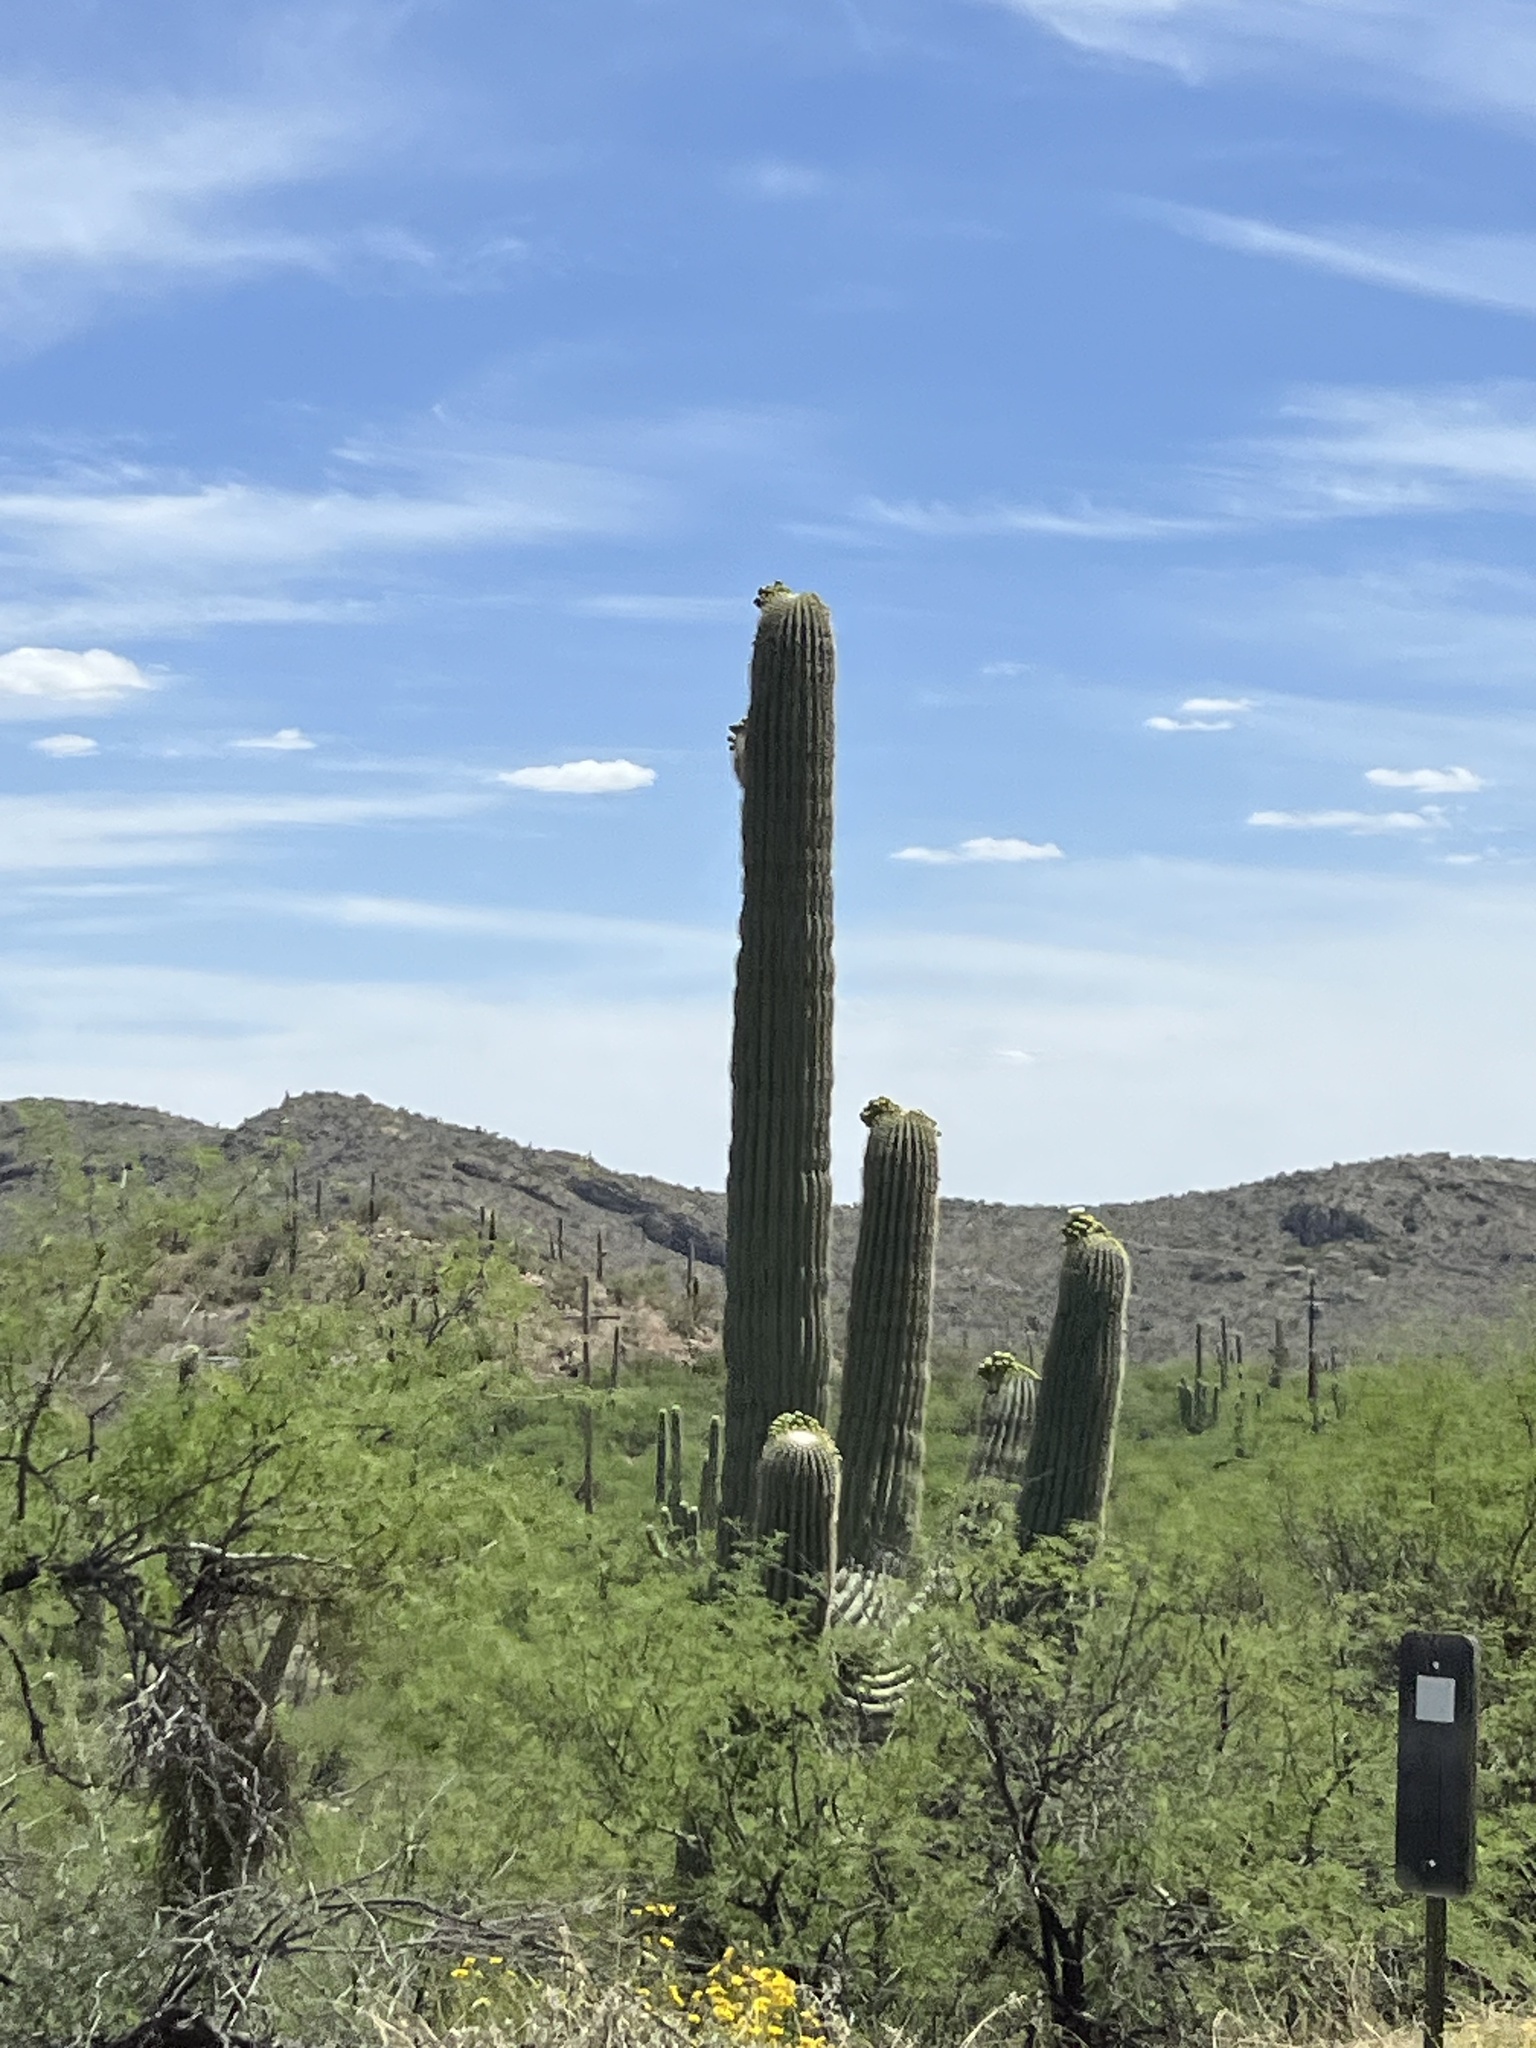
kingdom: Plantae
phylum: Tracheophyta
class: Magnoliopsida
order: Caryophyllales
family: Cactaceae
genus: Carnegiea
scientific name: Carnegiea gigantea
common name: Saguaro
